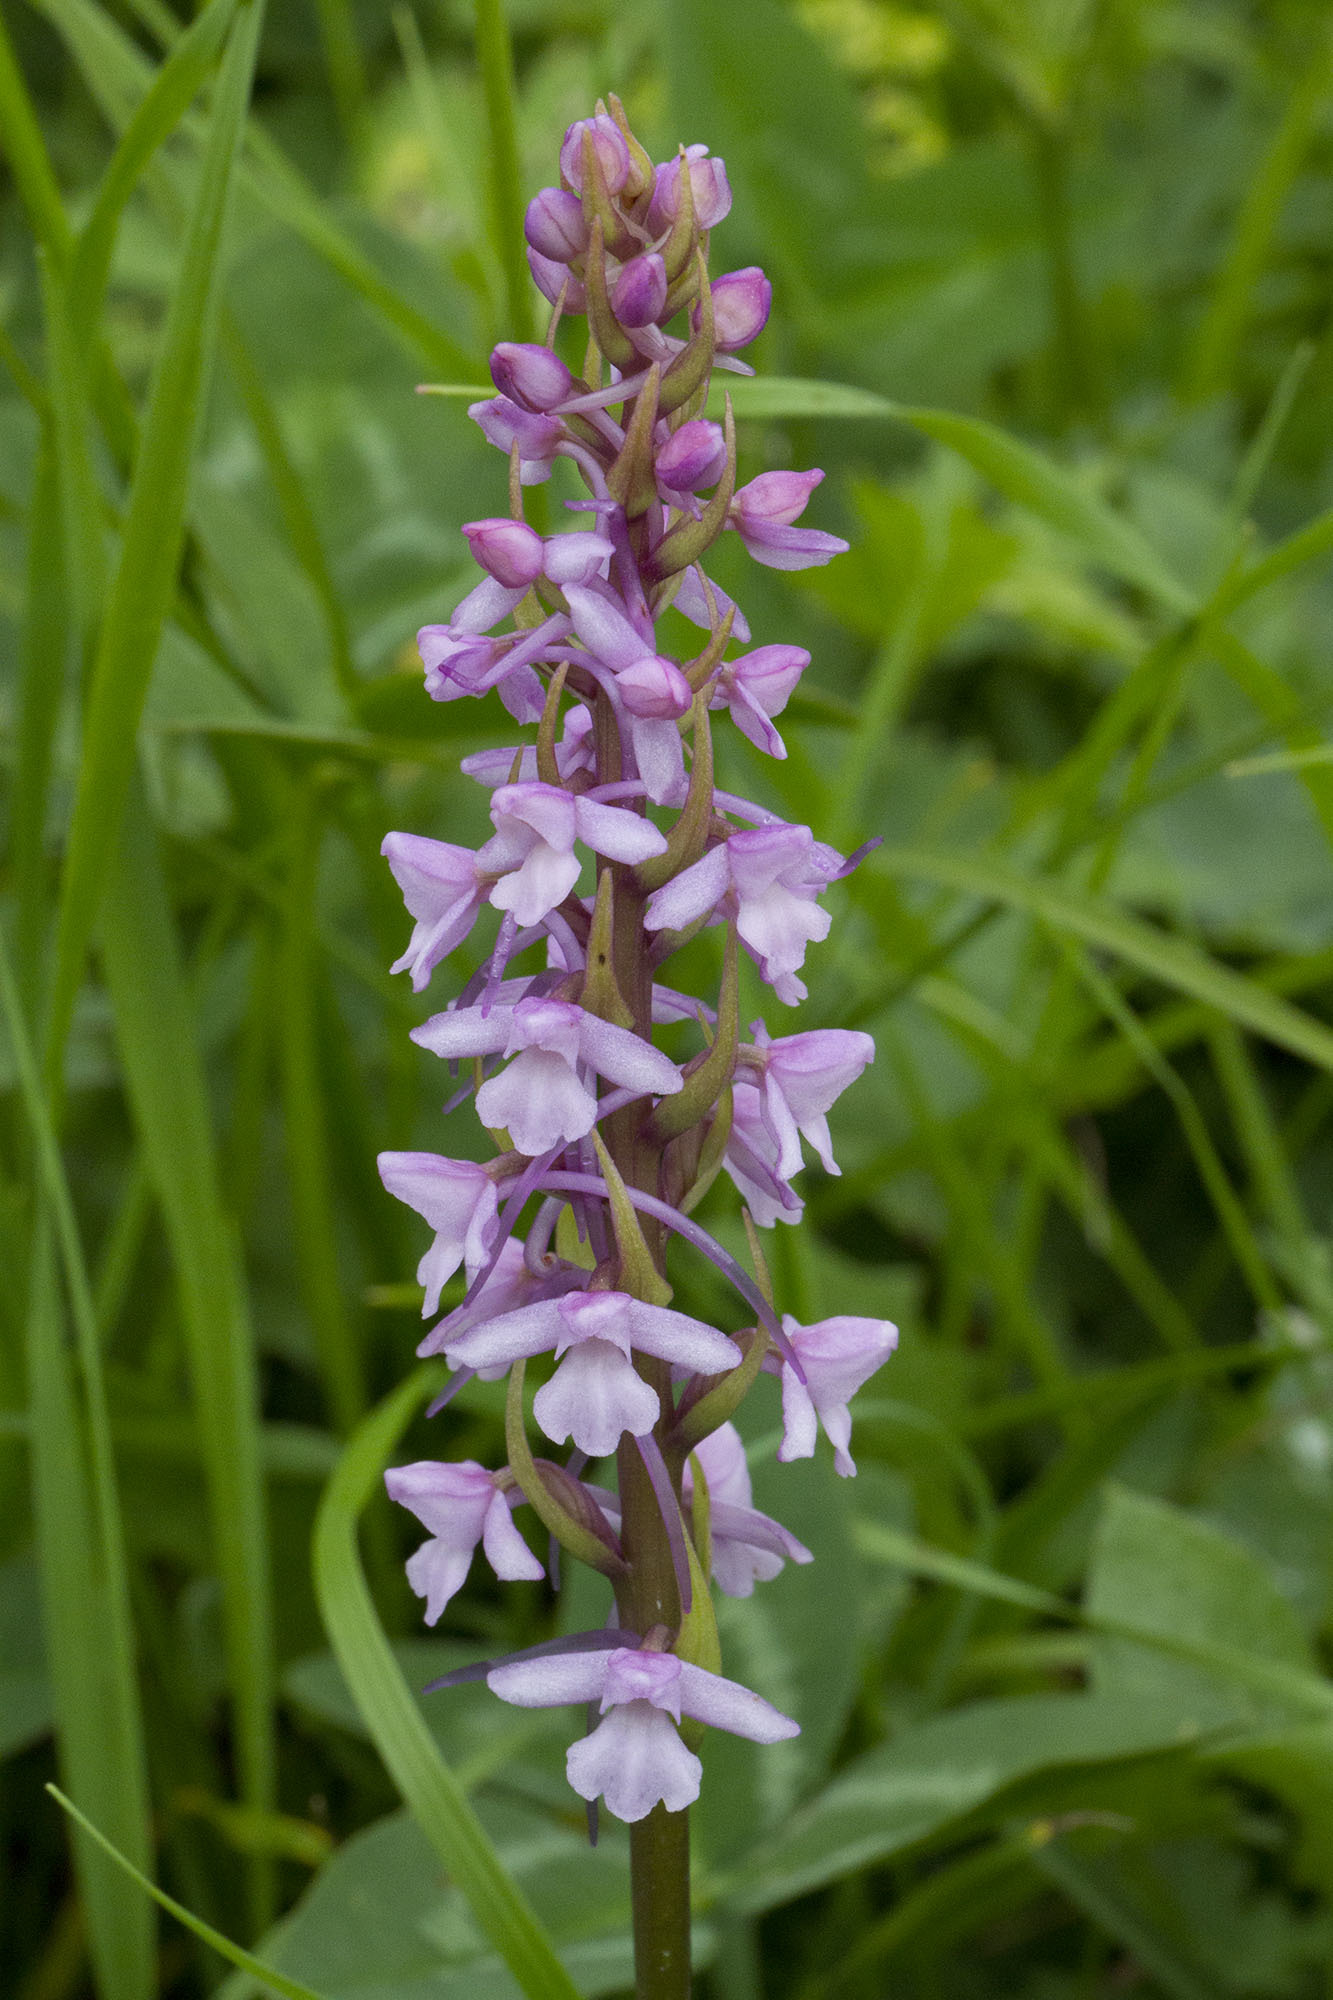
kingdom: Plantae
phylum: Tracheophyta
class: Liliopsida
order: Asparagales
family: Orchidaceae
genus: Gymnadenia
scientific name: Gymnadenia conopsea
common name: Fragrant orchid
